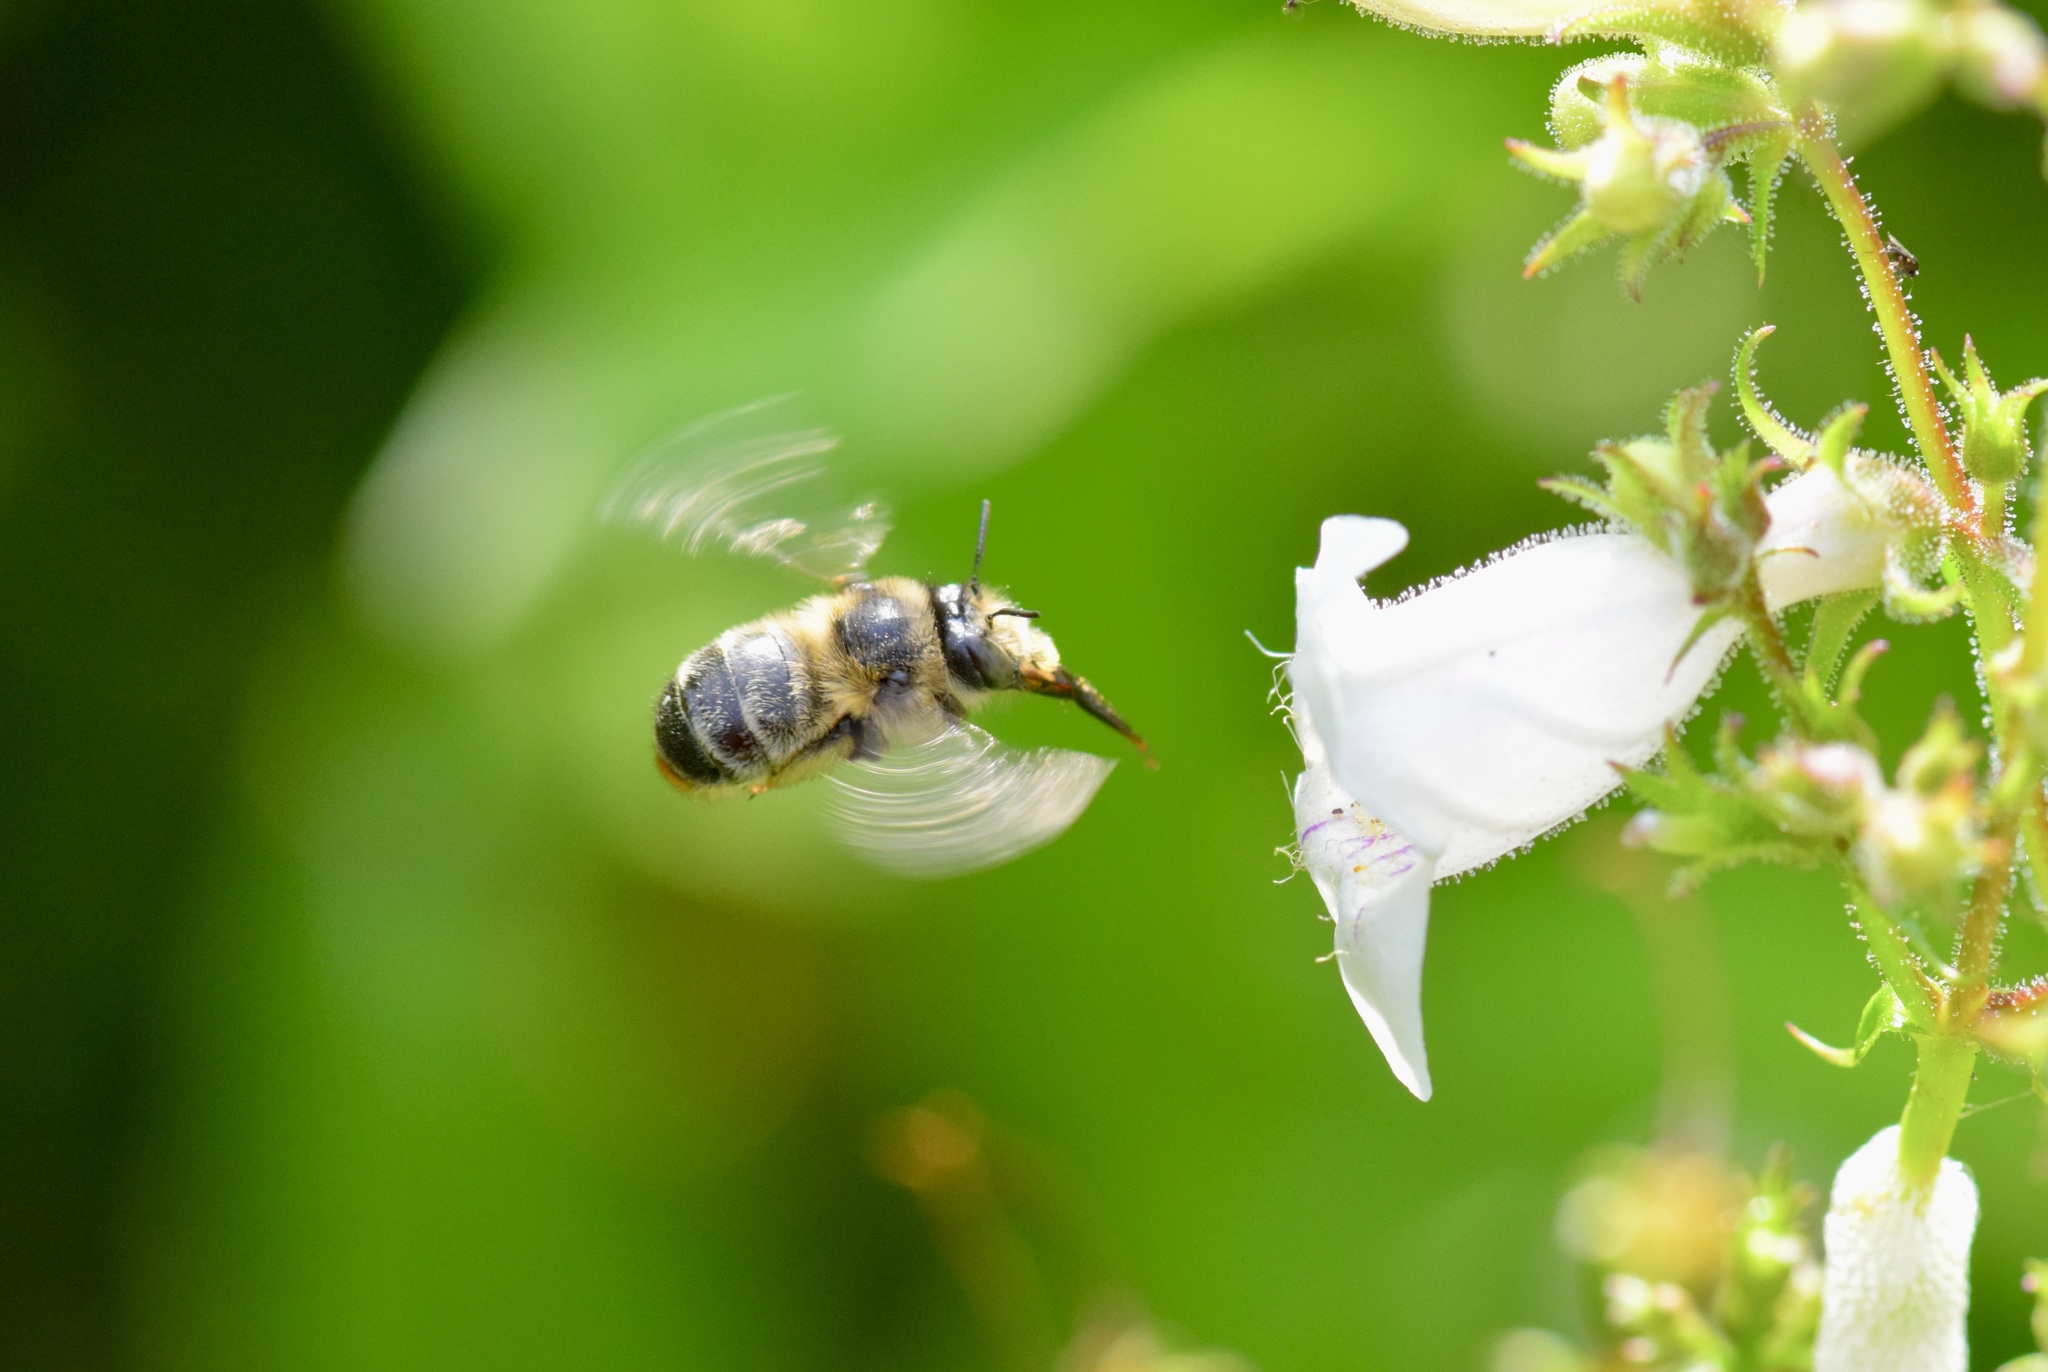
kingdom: Animalia
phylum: Arthropoda
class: Insecta
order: Hymenoptera
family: Apidae
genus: Anthophora
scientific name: Anthophora terminalis
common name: Orange-tipped wood-digger bee
